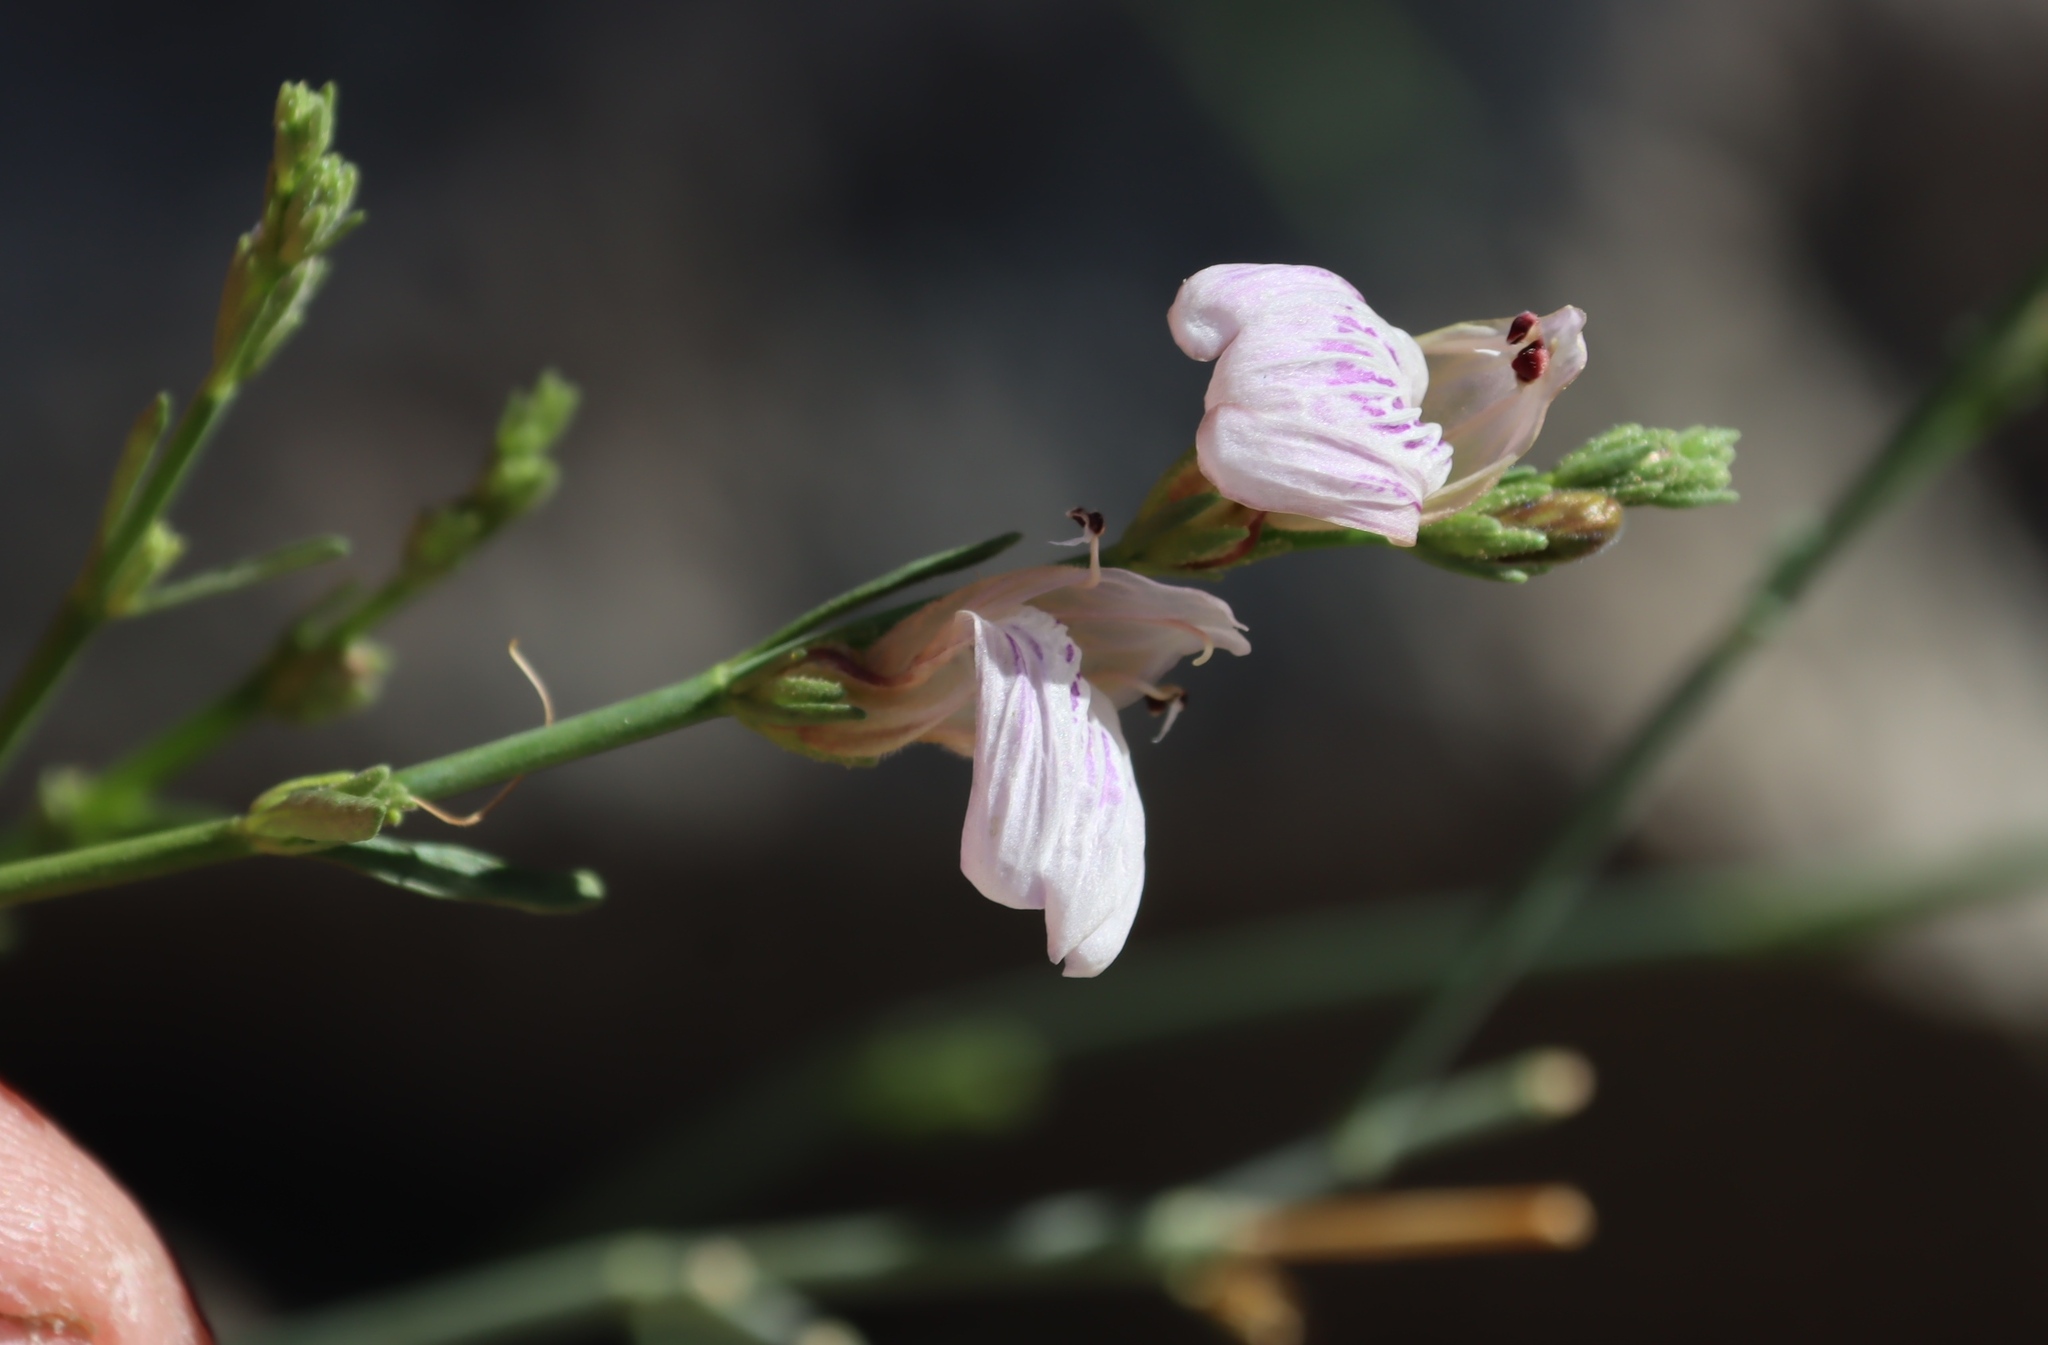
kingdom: Plantae
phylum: Tracheophyta
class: Magnoliopsida
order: Lamiales
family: Acanthaceae
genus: Pogonospermum
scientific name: Pogonospermum
